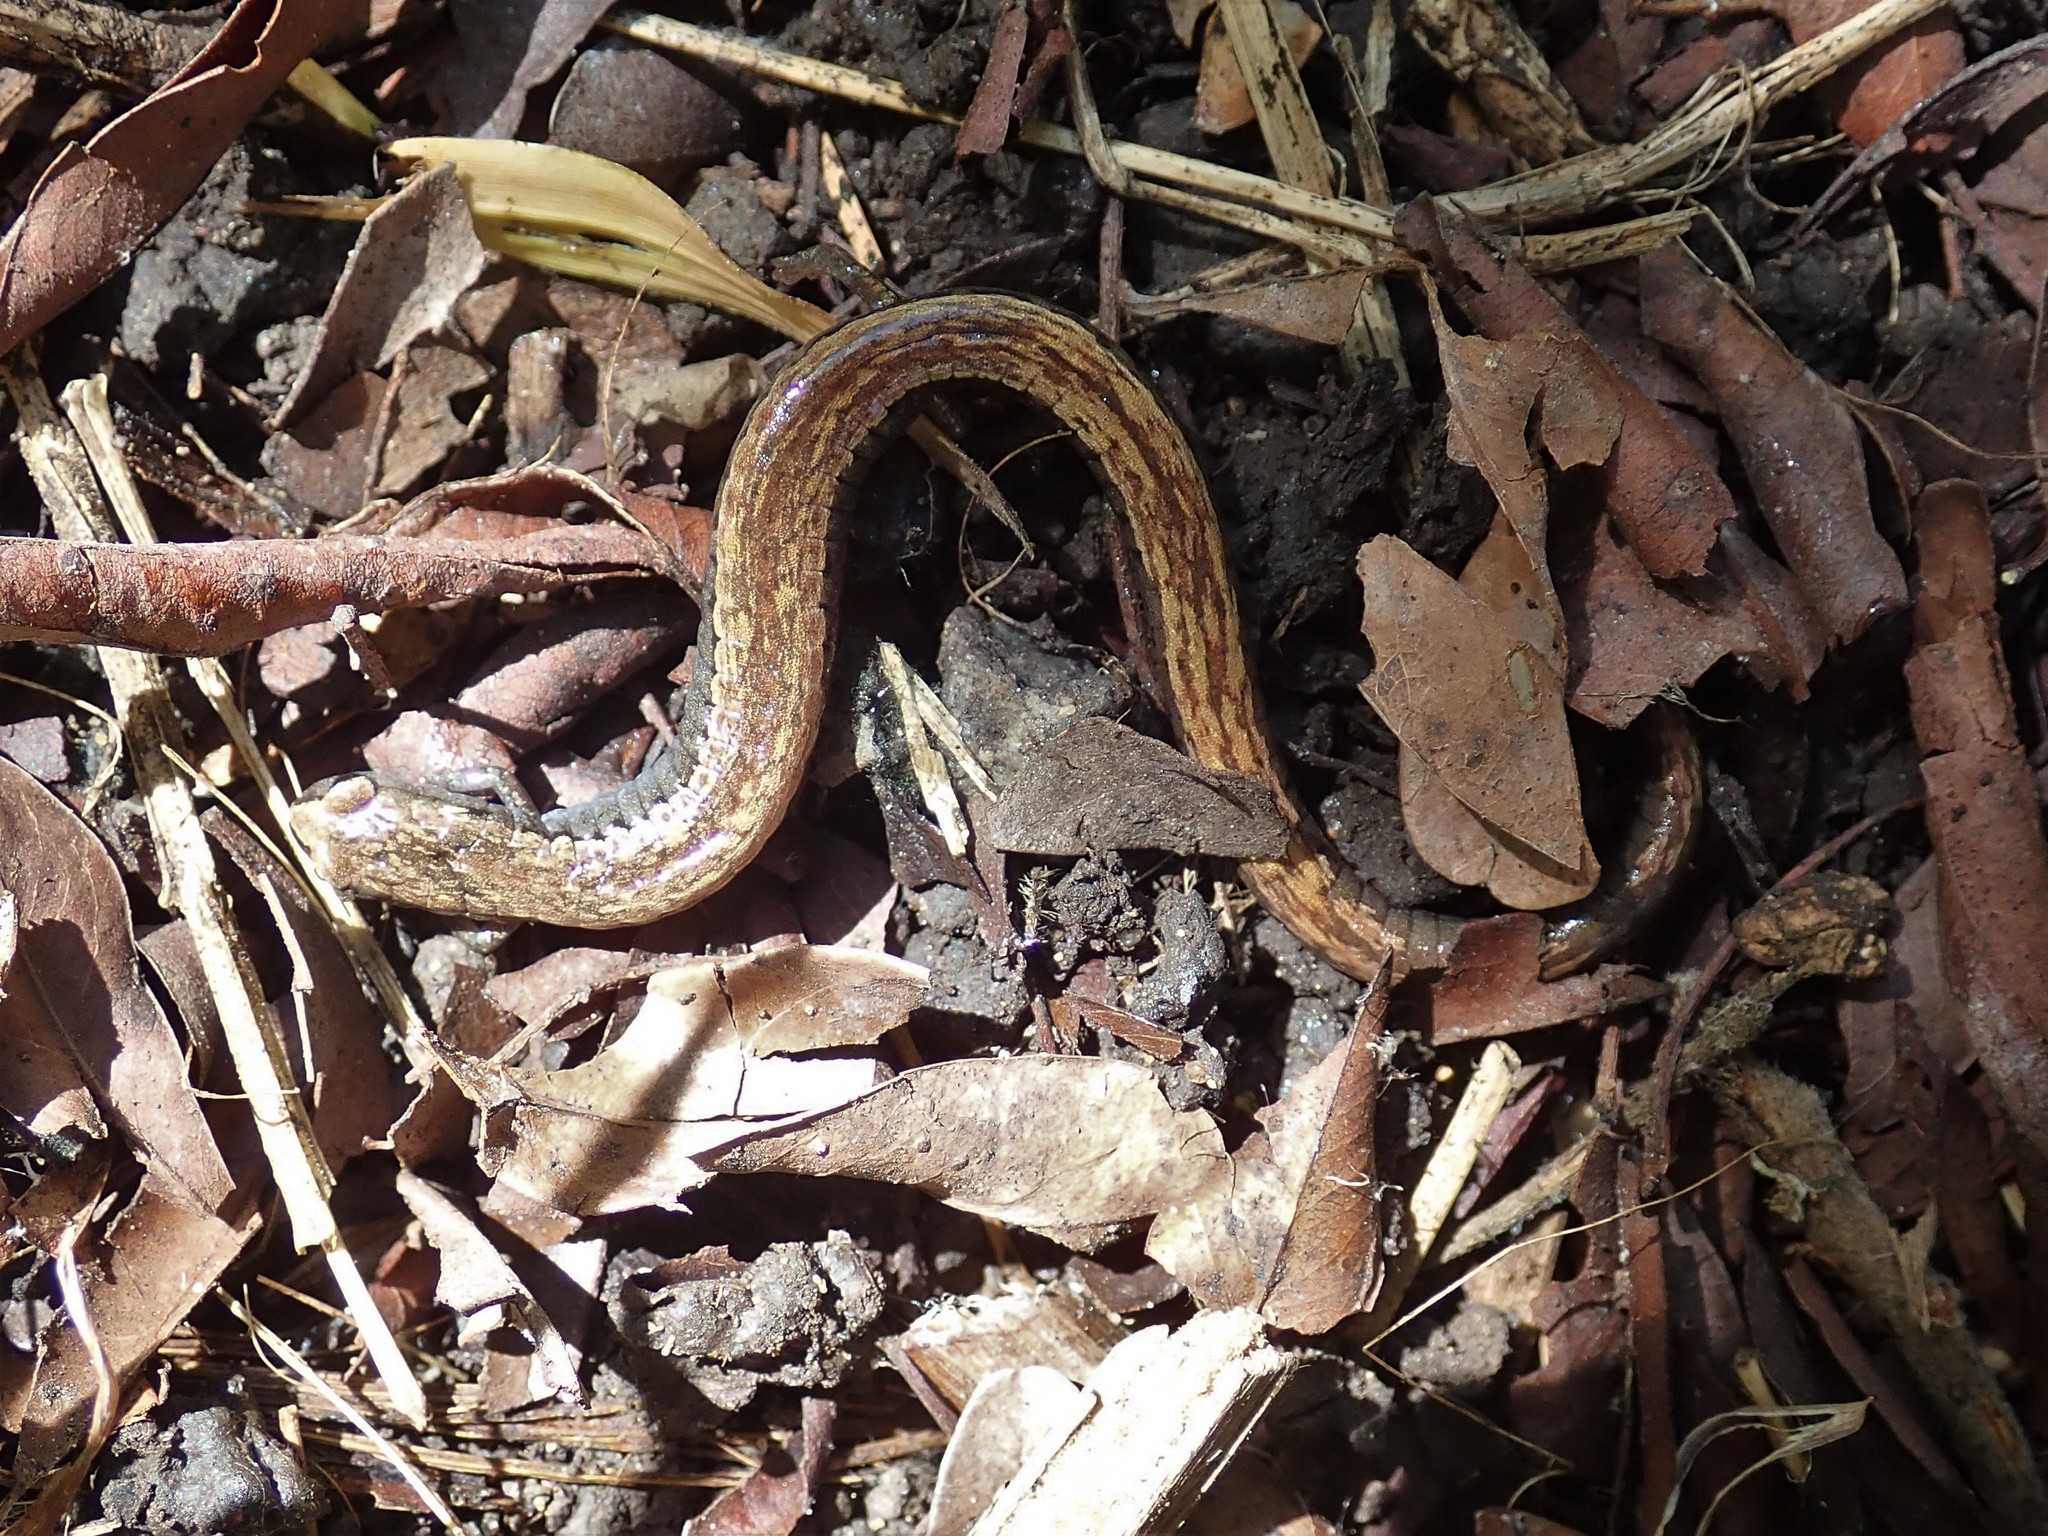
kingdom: Animalia
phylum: Chordata
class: Amphibia
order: Caudata
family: Plethodontidae
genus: Batrachoseps
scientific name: Batrachoseps attenuatus
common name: California slender salamander
